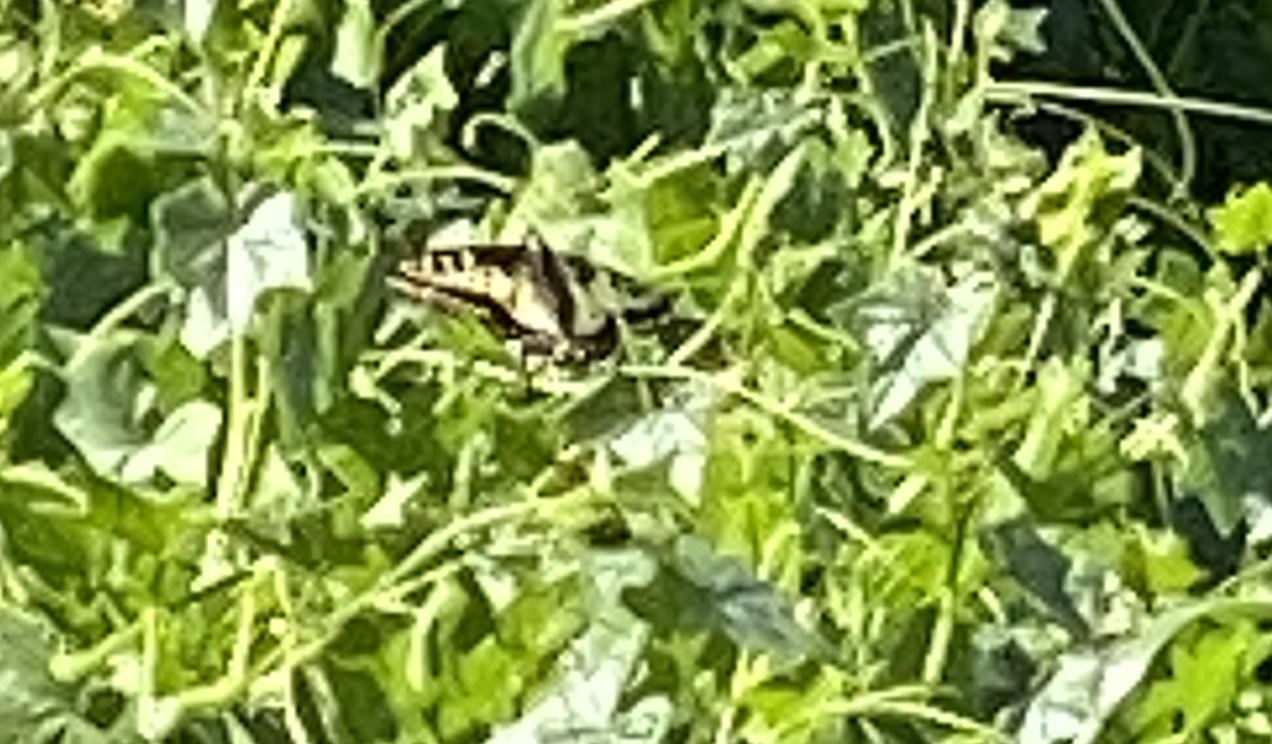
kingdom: Animalia
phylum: Arthropoda
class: Insecta
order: Lepidoptera
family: Papilionidae
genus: Papilio
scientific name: Papilio zelicaon
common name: Anise swallowtail
